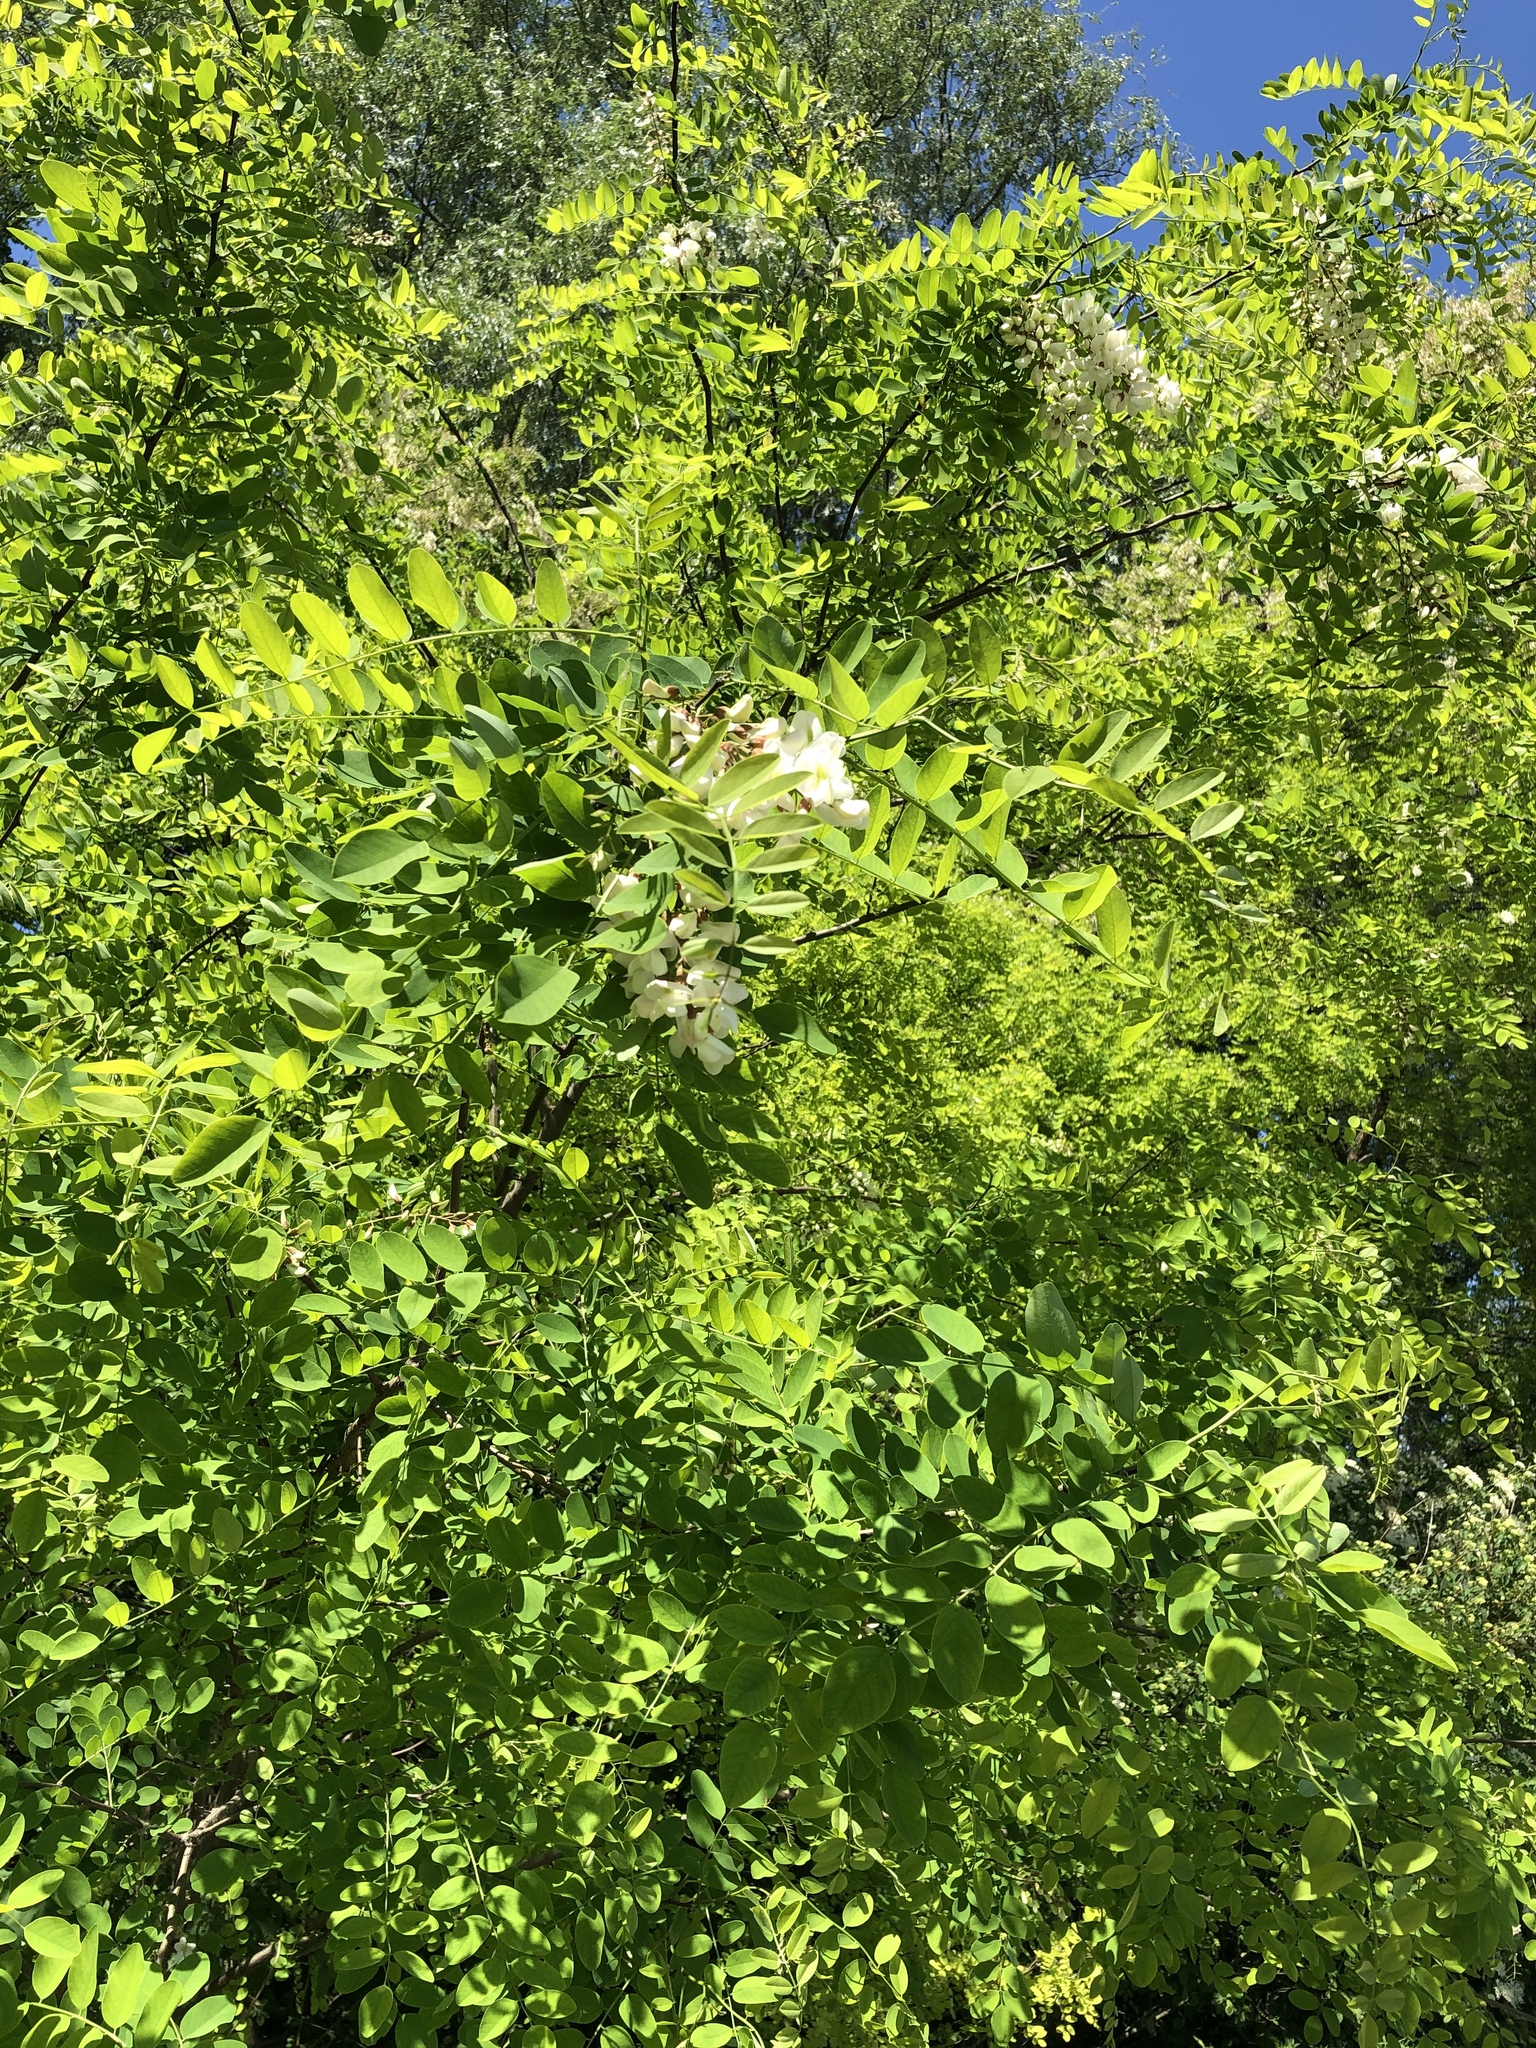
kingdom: Plantae
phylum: Tracheophyta
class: Magnoliopsida
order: Fabales
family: Fabaceae
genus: Robinia
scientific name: Robinia pseudoacacia
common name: Black locust
